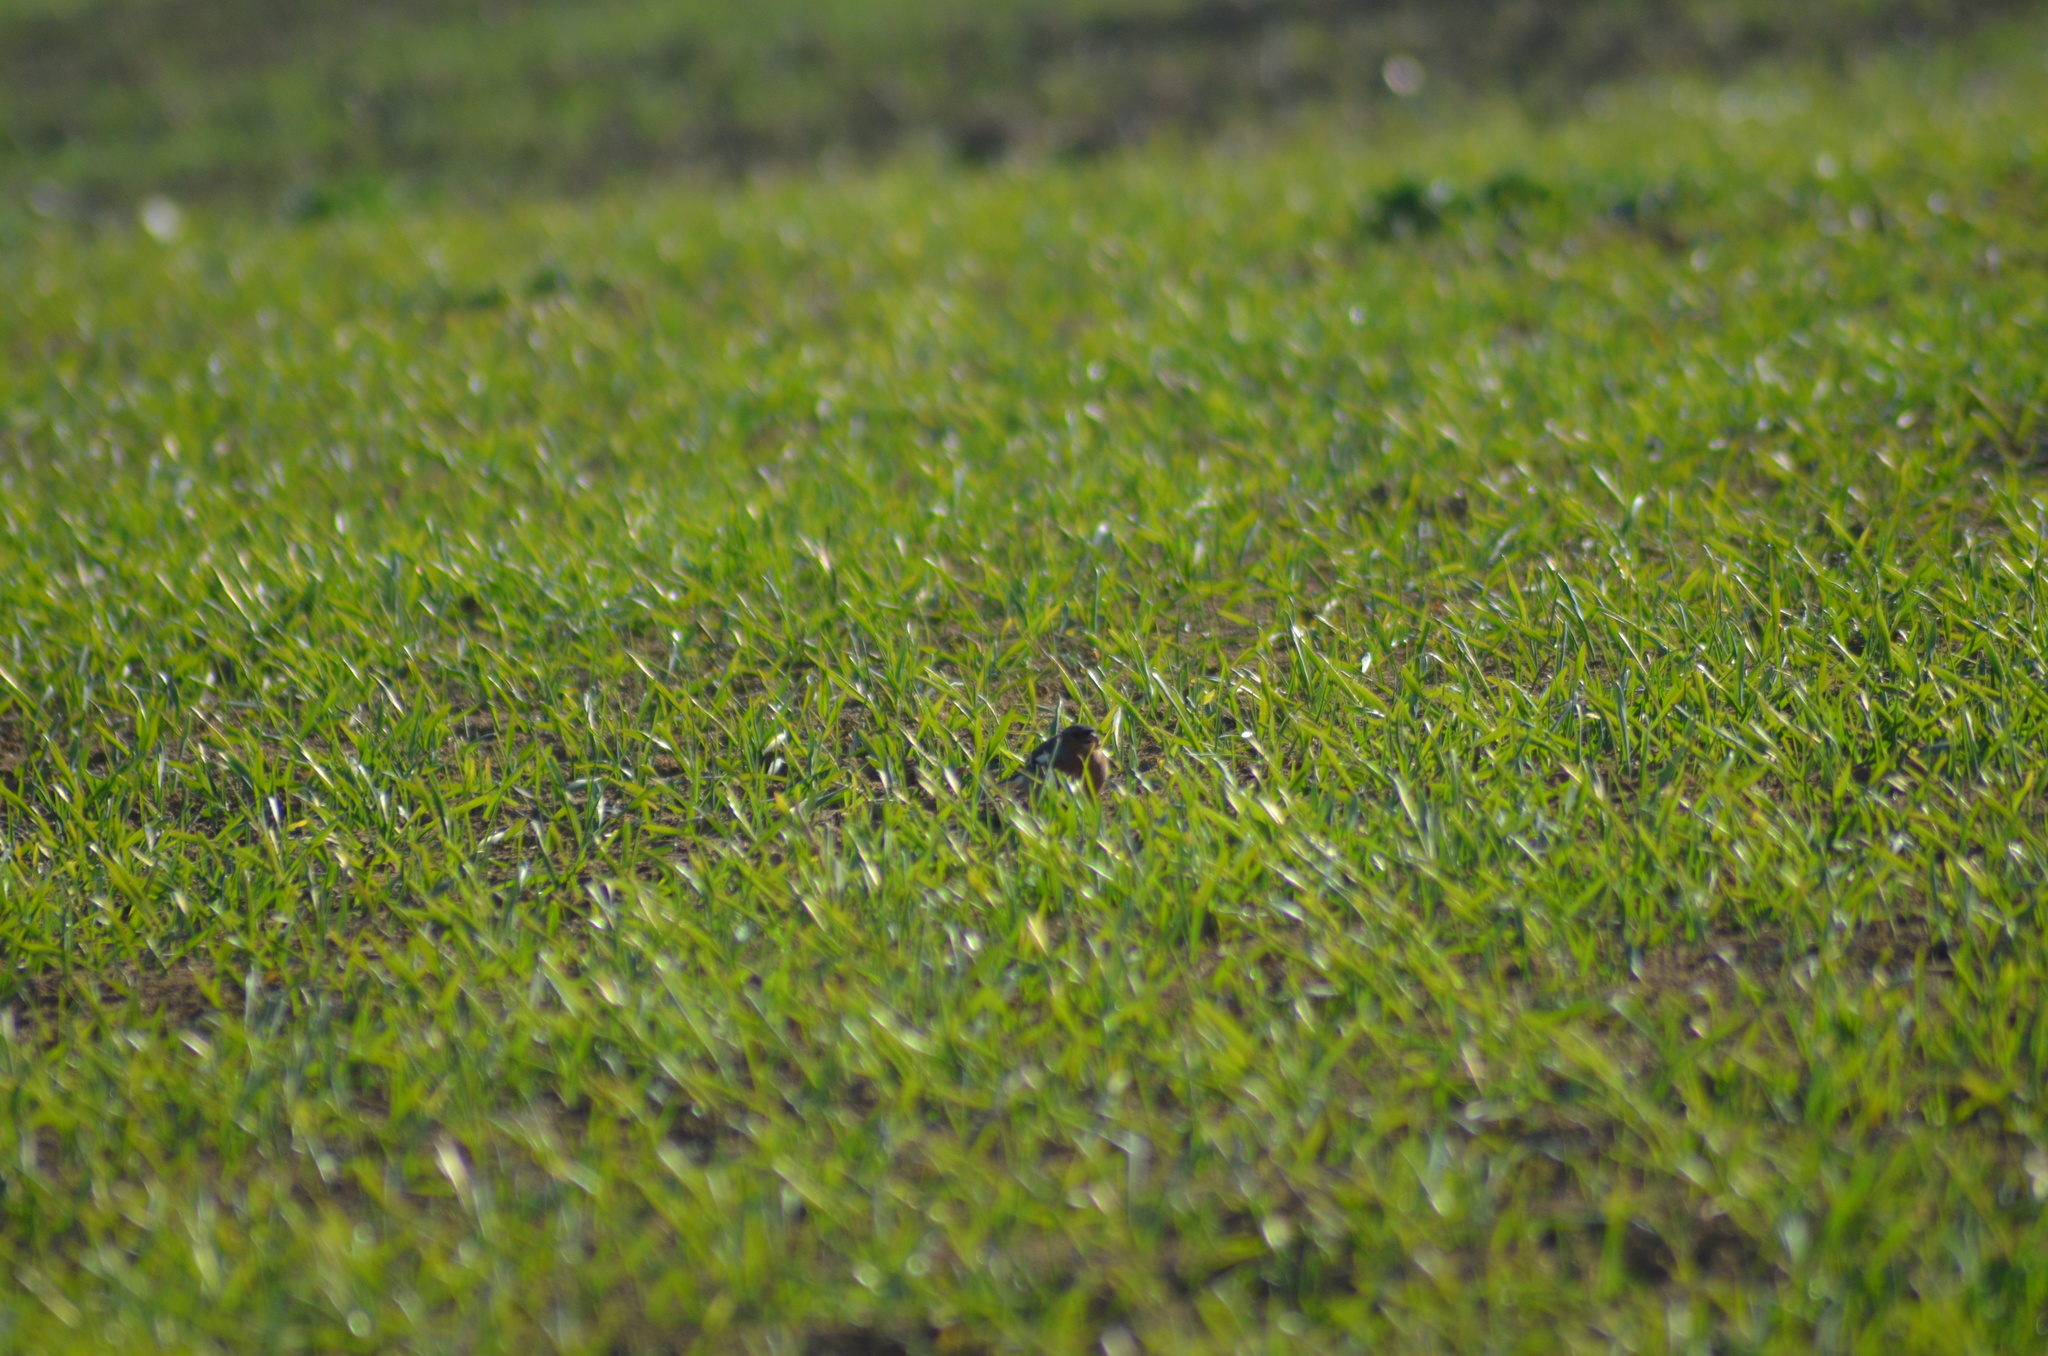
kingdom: Animalia
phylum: Chordata
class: Aves
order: Passeriformes
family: Fringillidae
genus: Fringilla
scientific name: Fringilla coelebs
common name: Common chaffinch
